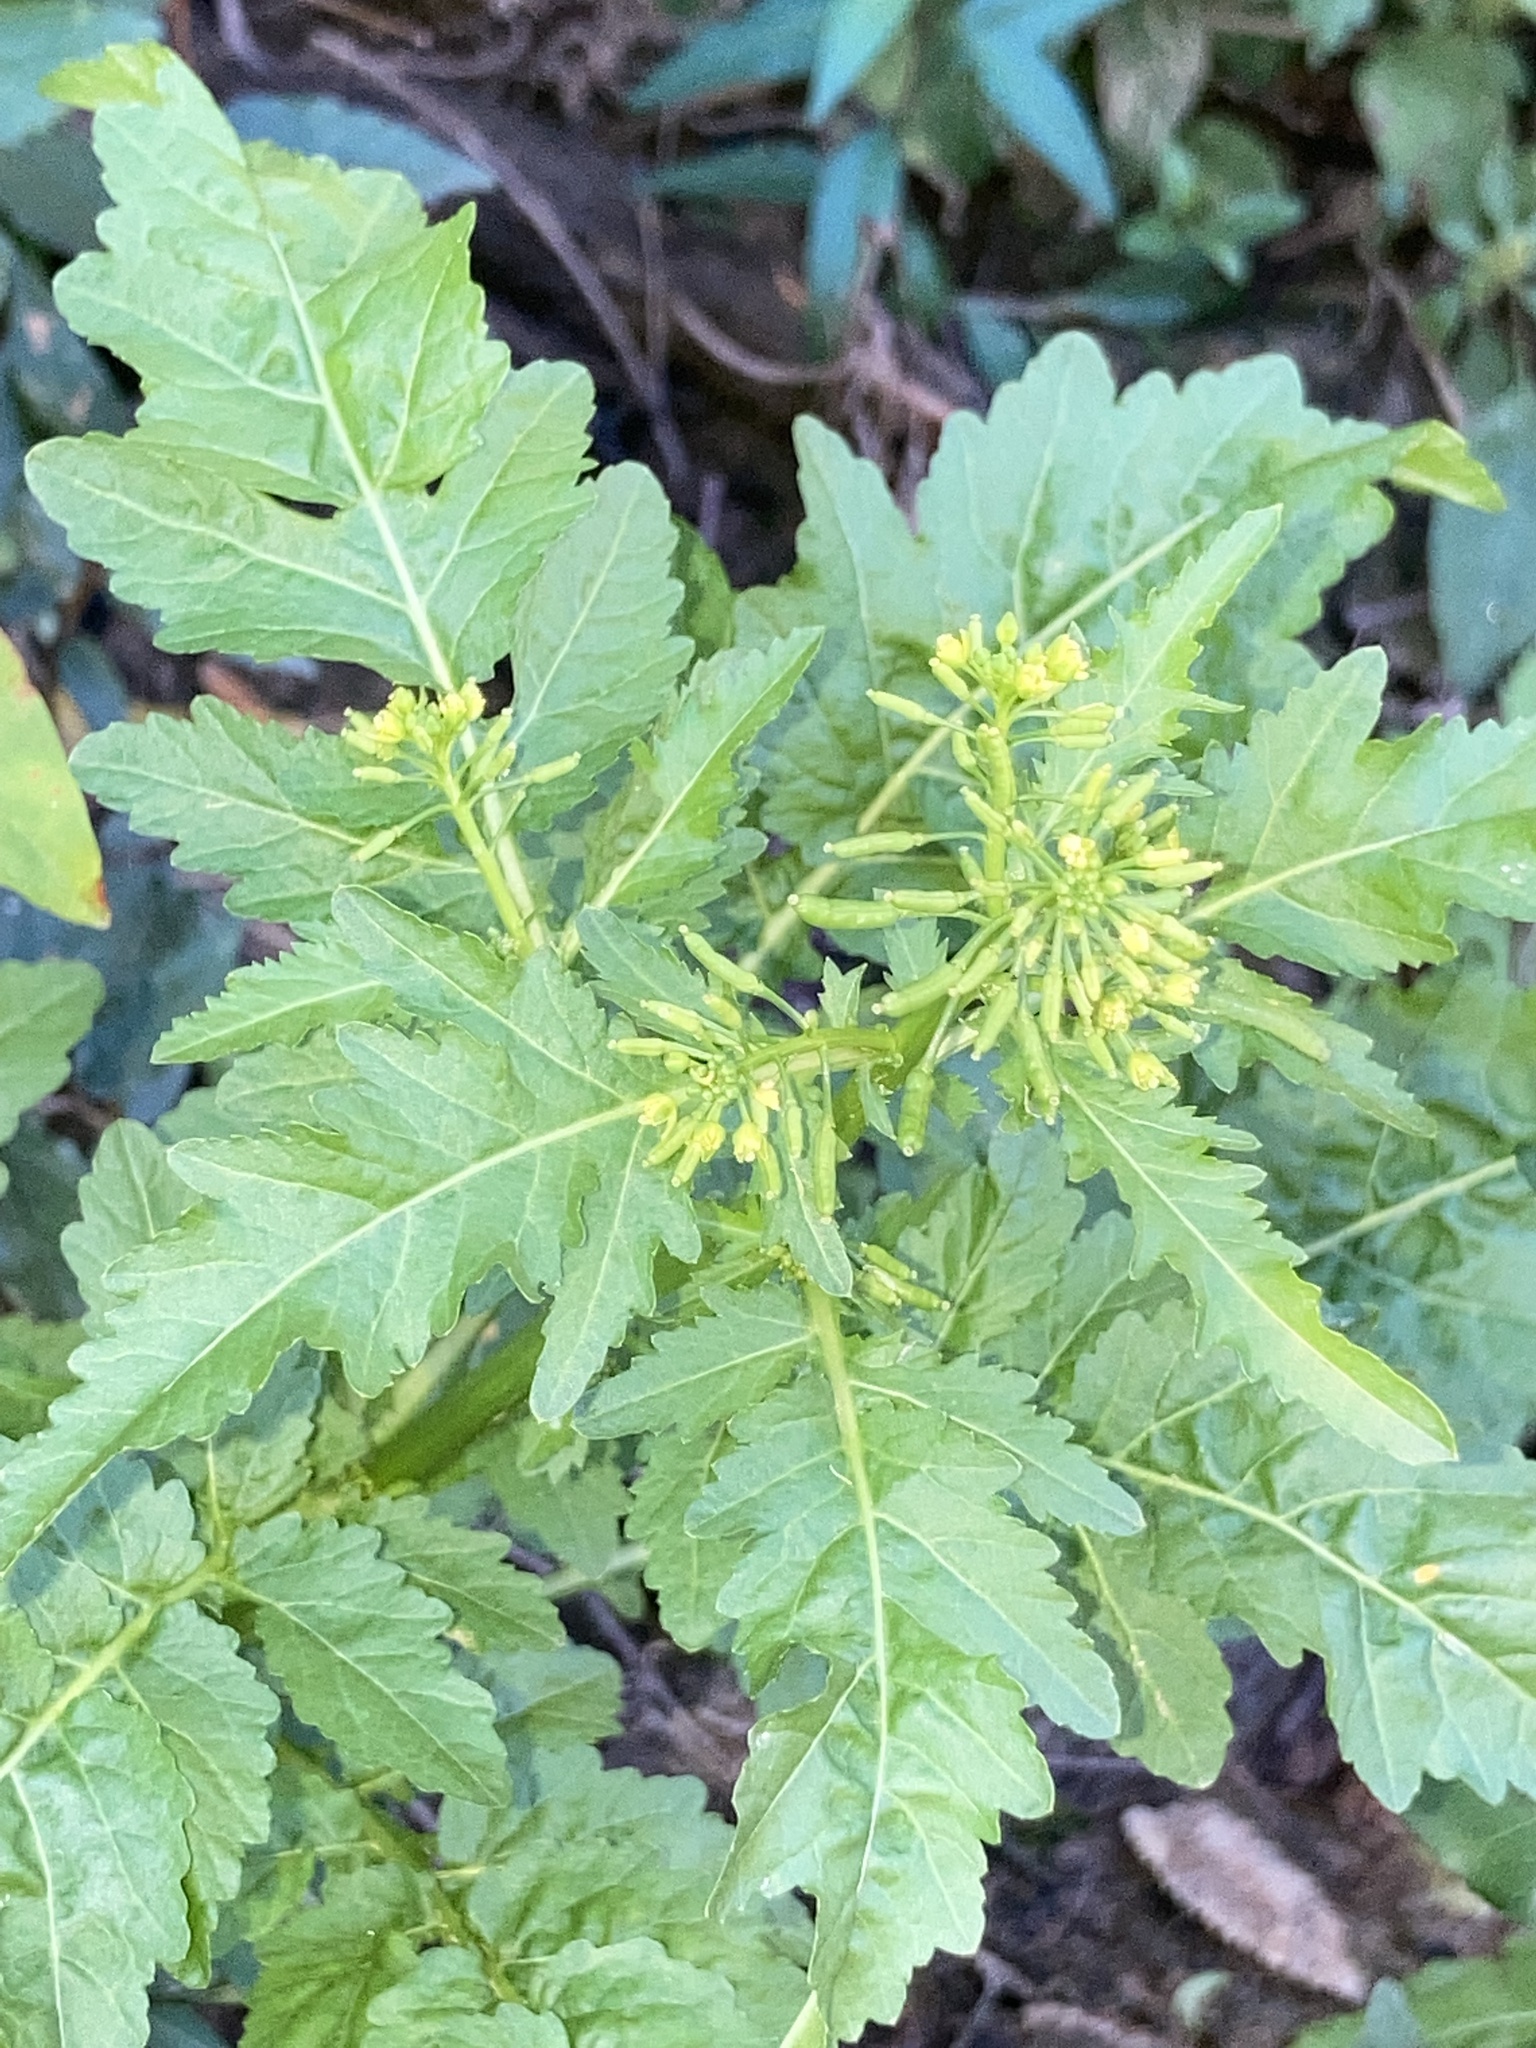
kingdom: Plantae
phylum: Tracheophyta
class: Magnoliopsida
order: Brassicales
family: Brassicaceae
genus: Rorippa
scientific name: Rorippa sessiliflora
